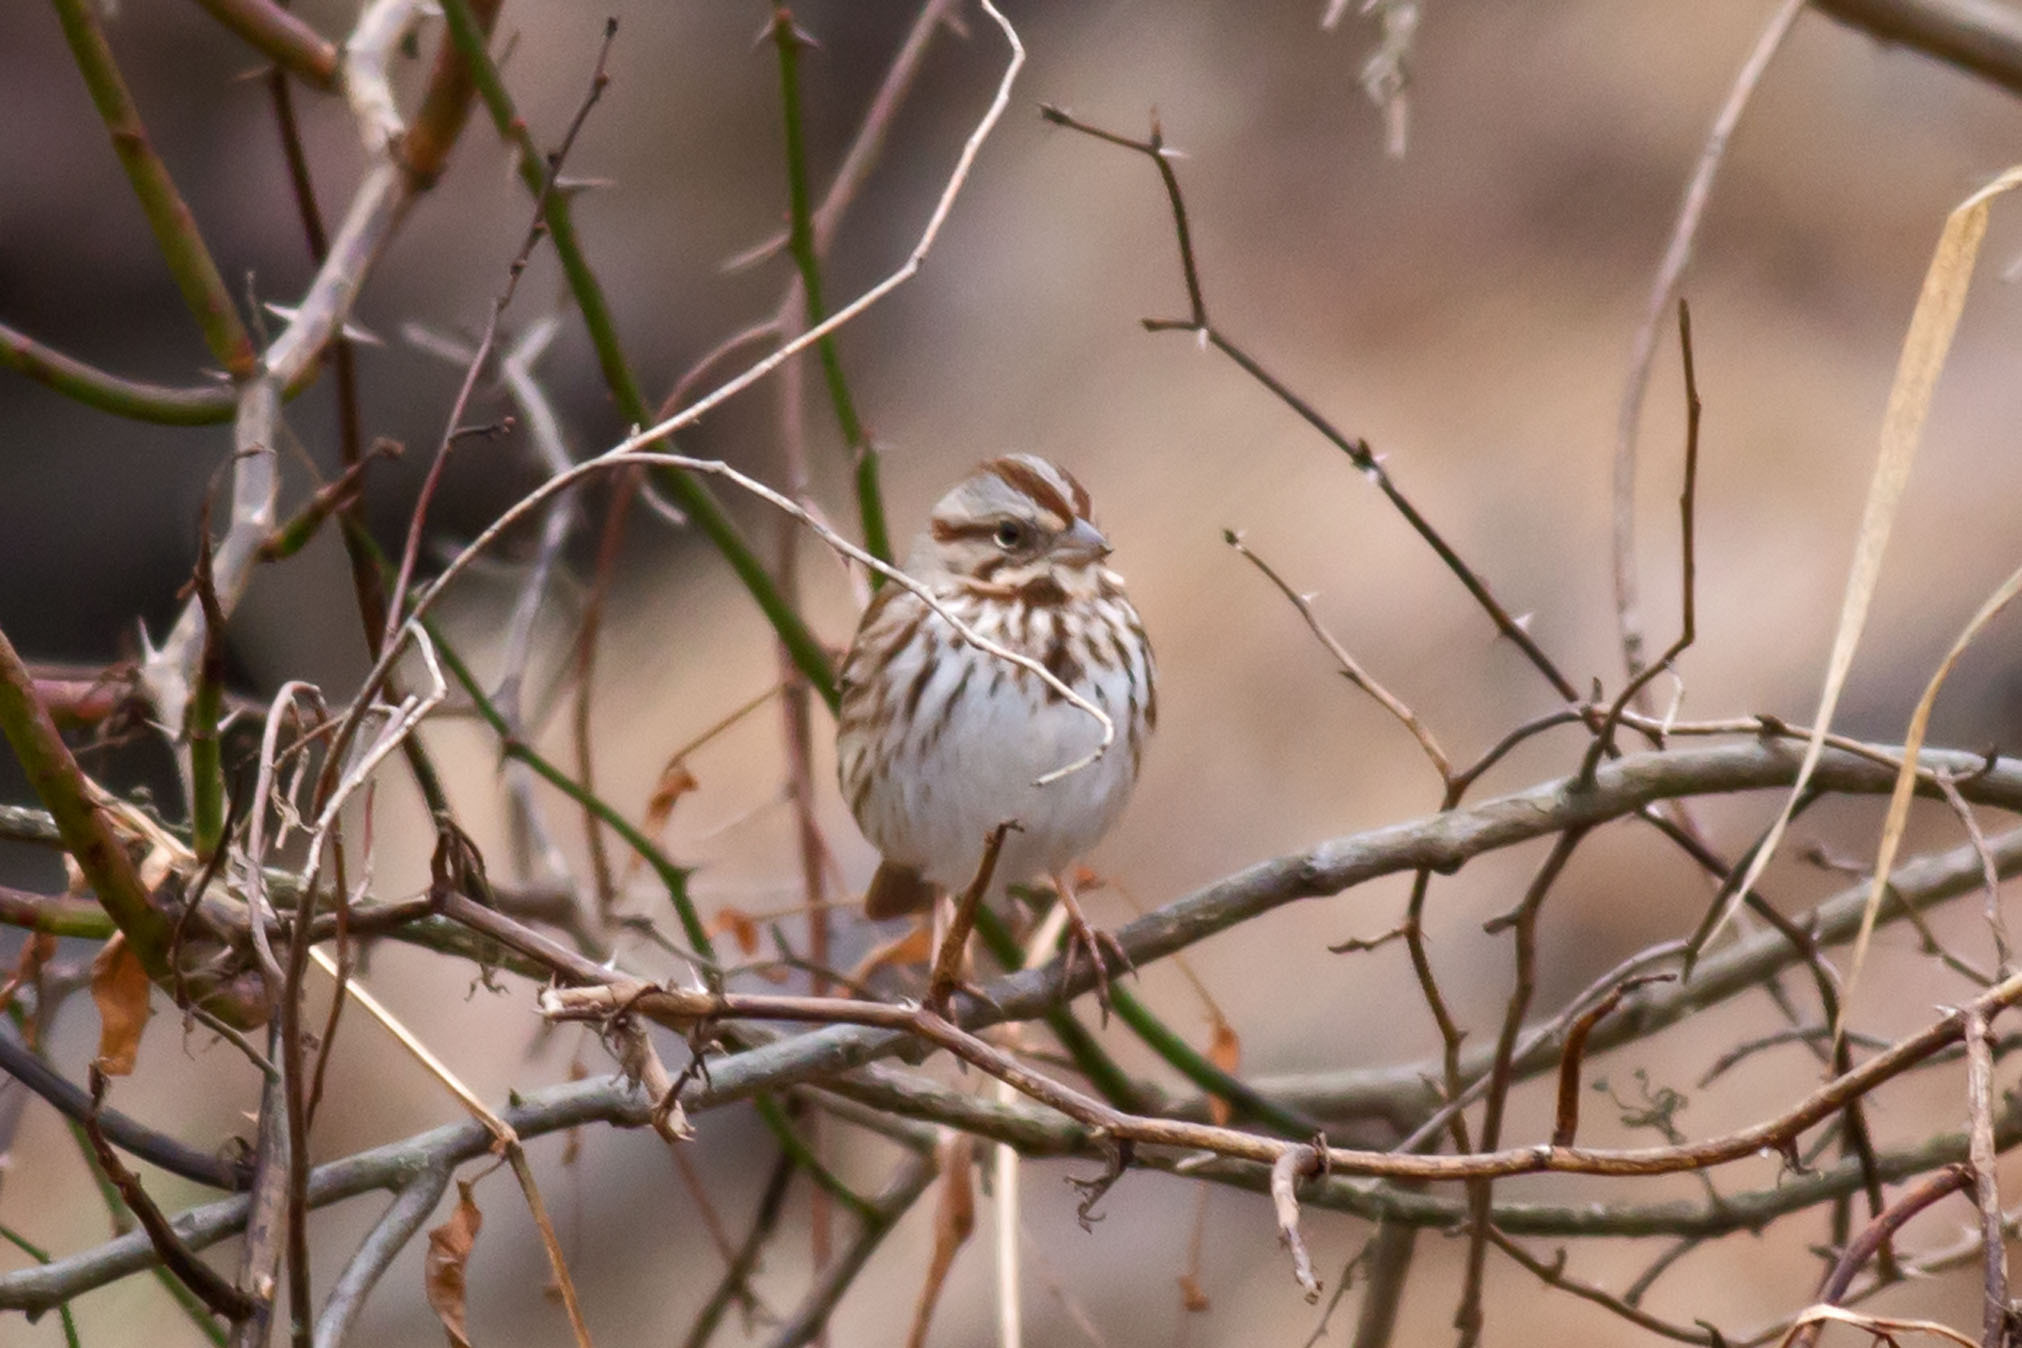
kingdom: Animalia
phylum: Chordata
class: Aves
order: Passeriformes
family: Passerellidae
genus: Melospiza
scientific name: Melospiza melodia
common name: Song sparrow
